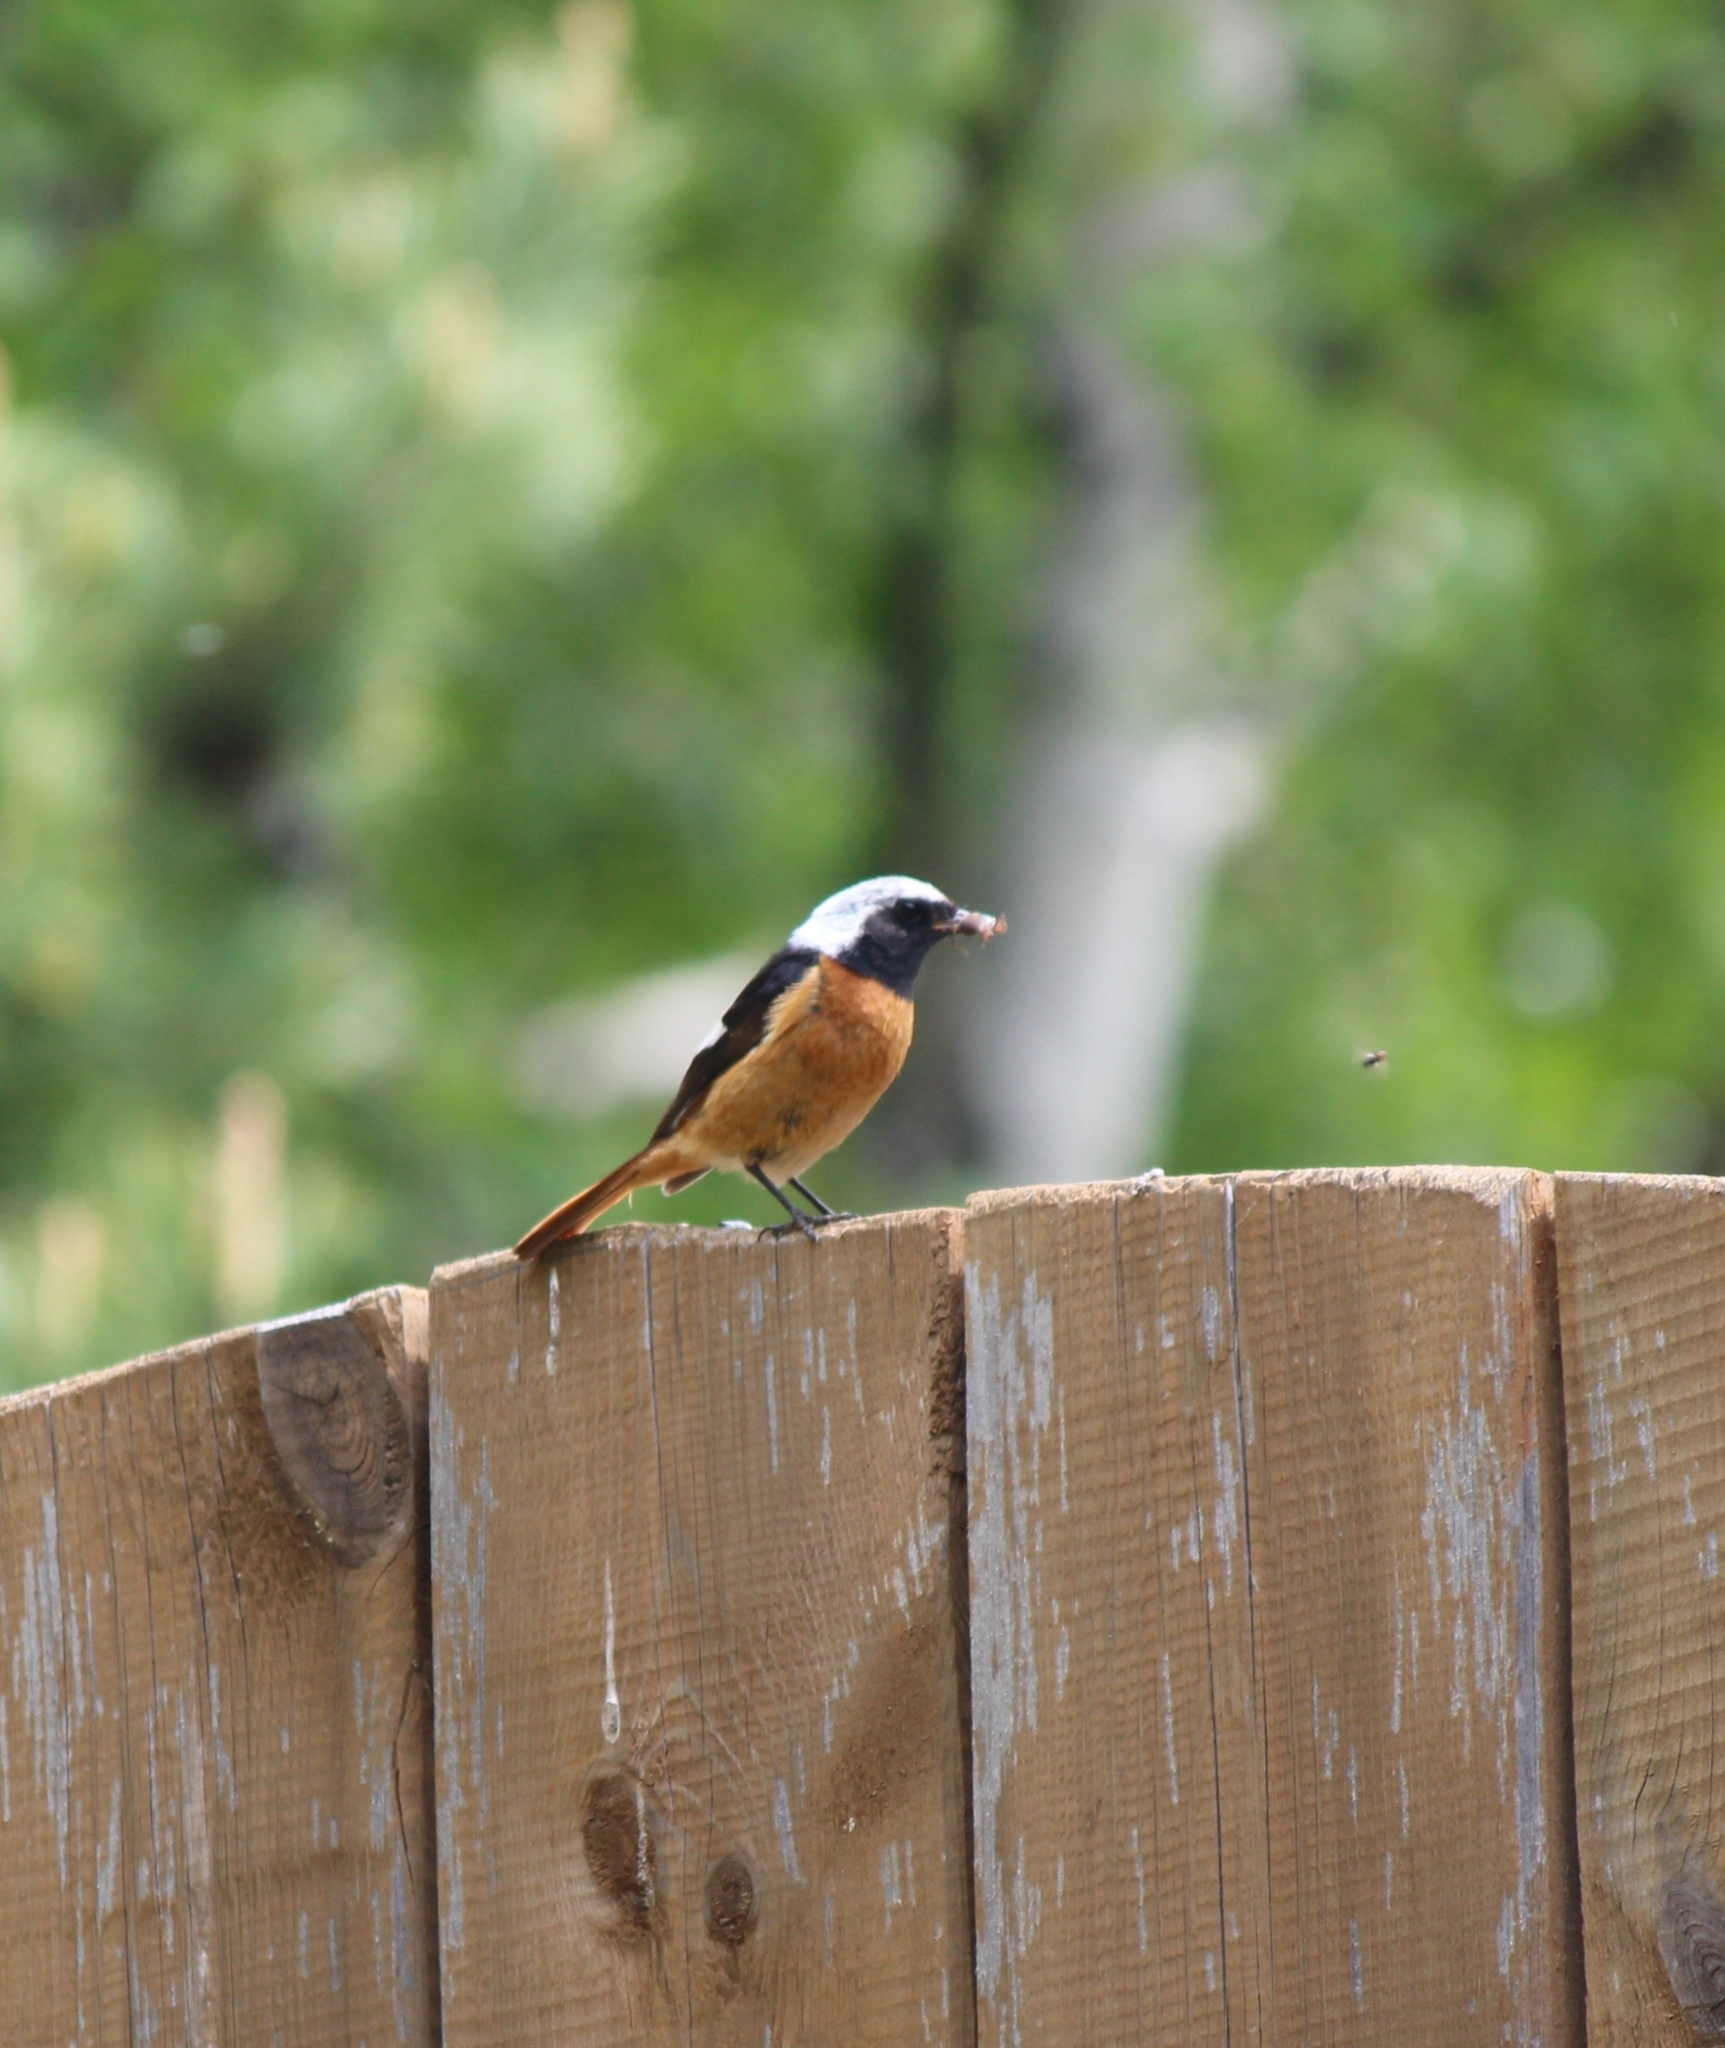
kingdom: Animalia
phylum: Chordata
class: Aves
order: Passeriformes
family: Muscicapidae
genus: Phoenicurus
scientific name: Phoenicurus auroreus
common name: Daurian redstart
